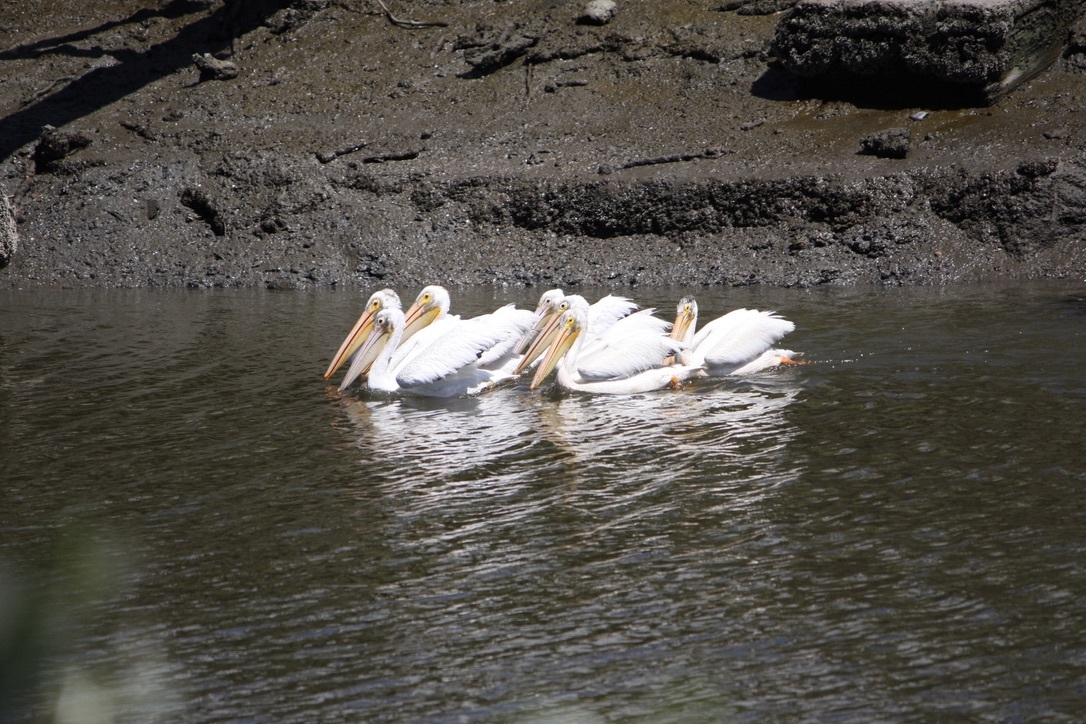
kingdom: Animalia
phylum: Chordata
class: Aves
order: Pelecaniformes
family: Pelecanidae
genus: Pelecanus
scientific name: Pelecanus erythrorhynchos
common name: American white pelican
